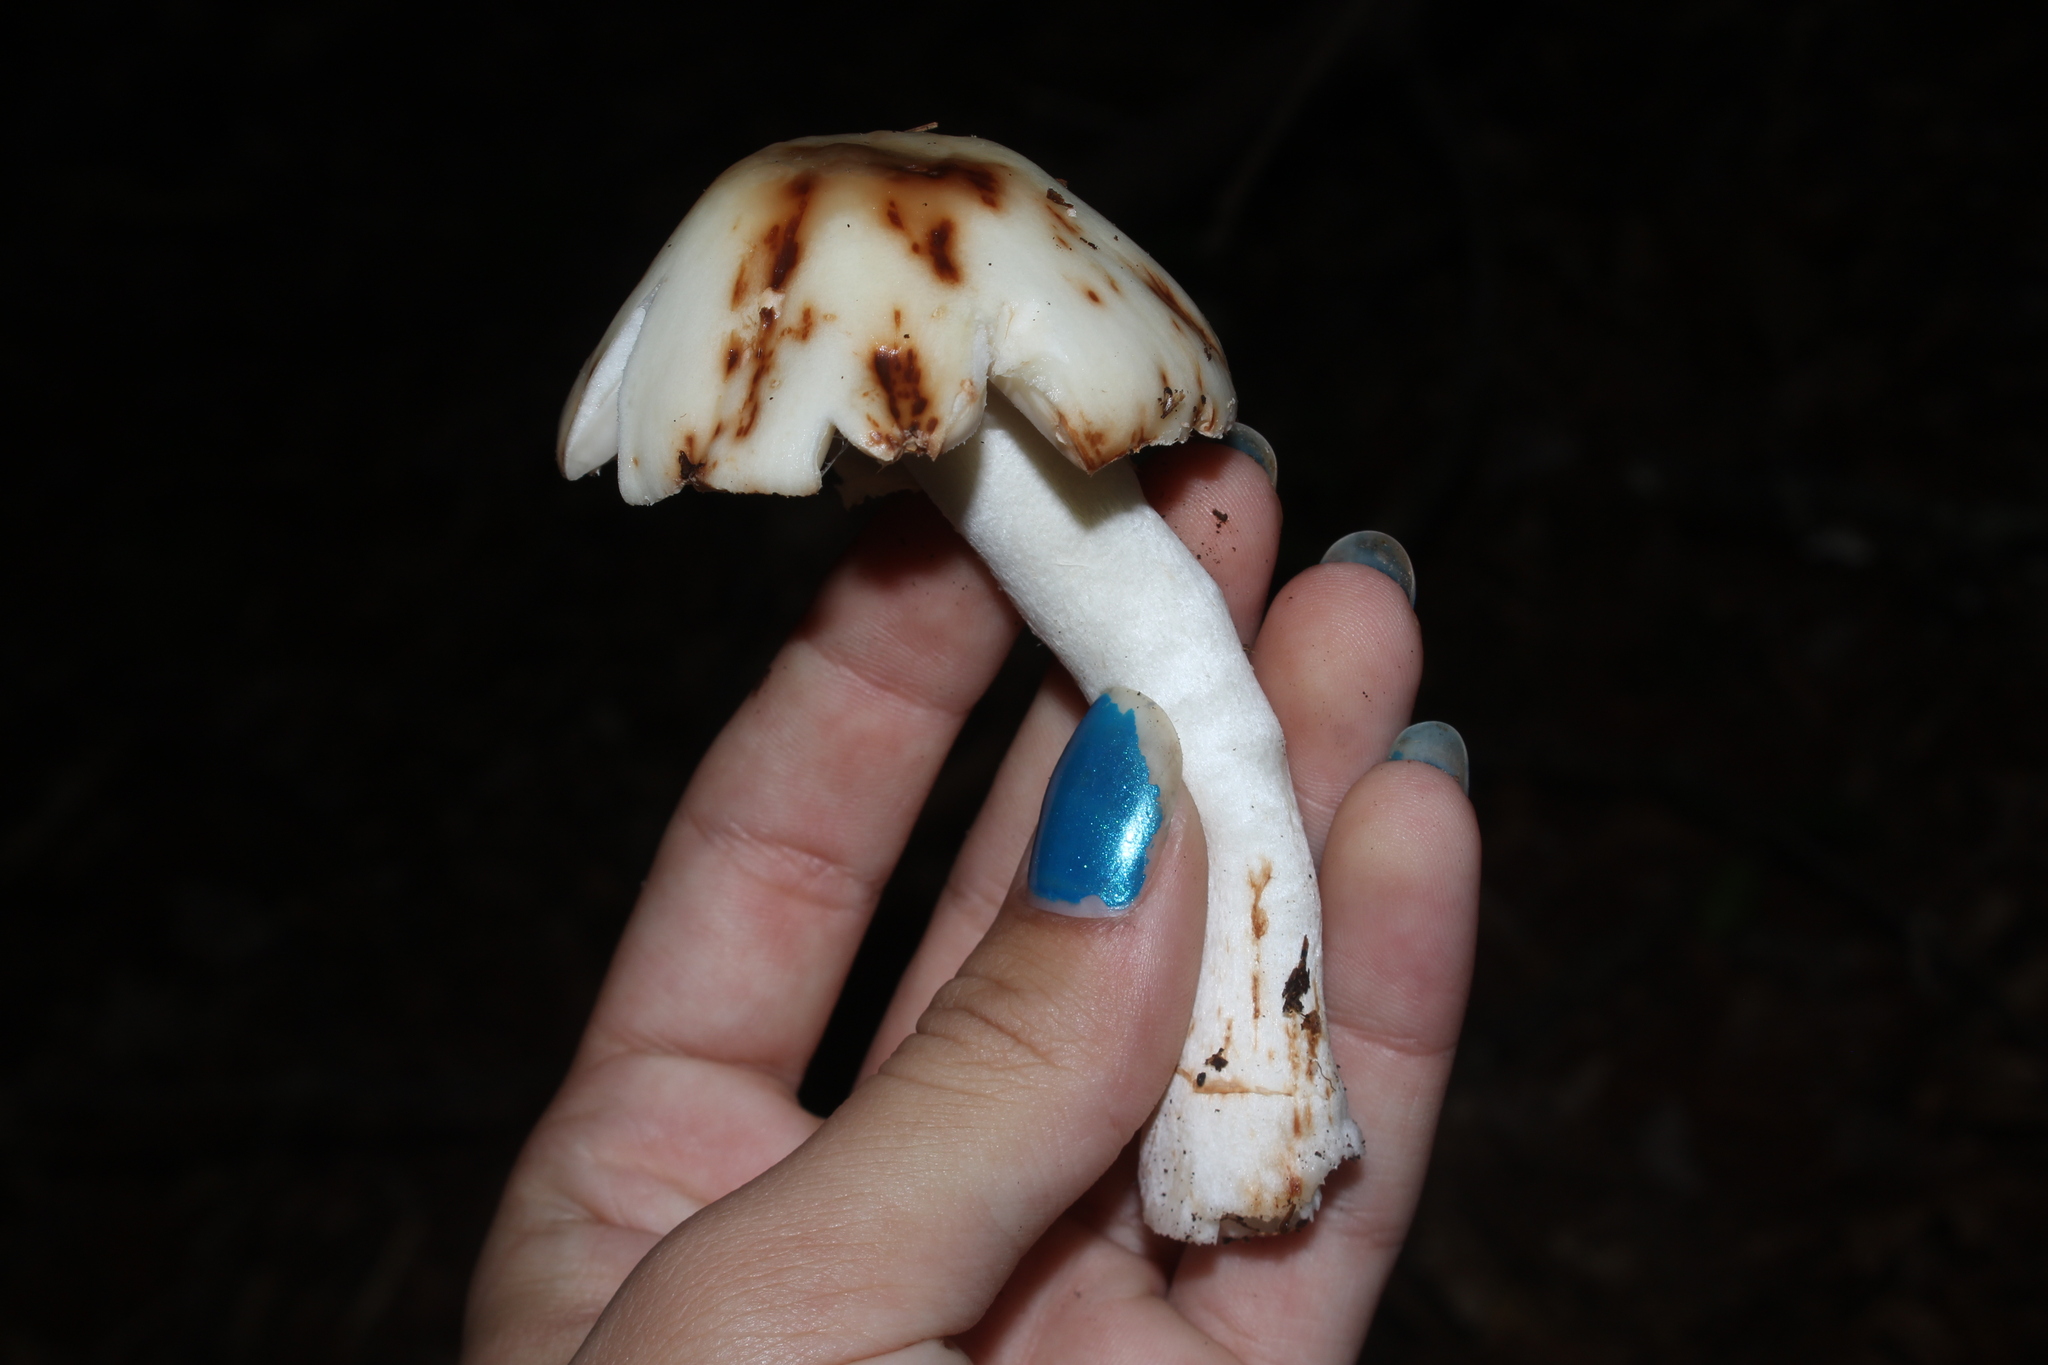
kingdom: Fungi
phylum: Basidiomycota
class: Agaricomycetes
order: Agaricales
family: Amanitaceae
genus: Amanita
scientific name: Amanita rubescens
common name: Blusher
